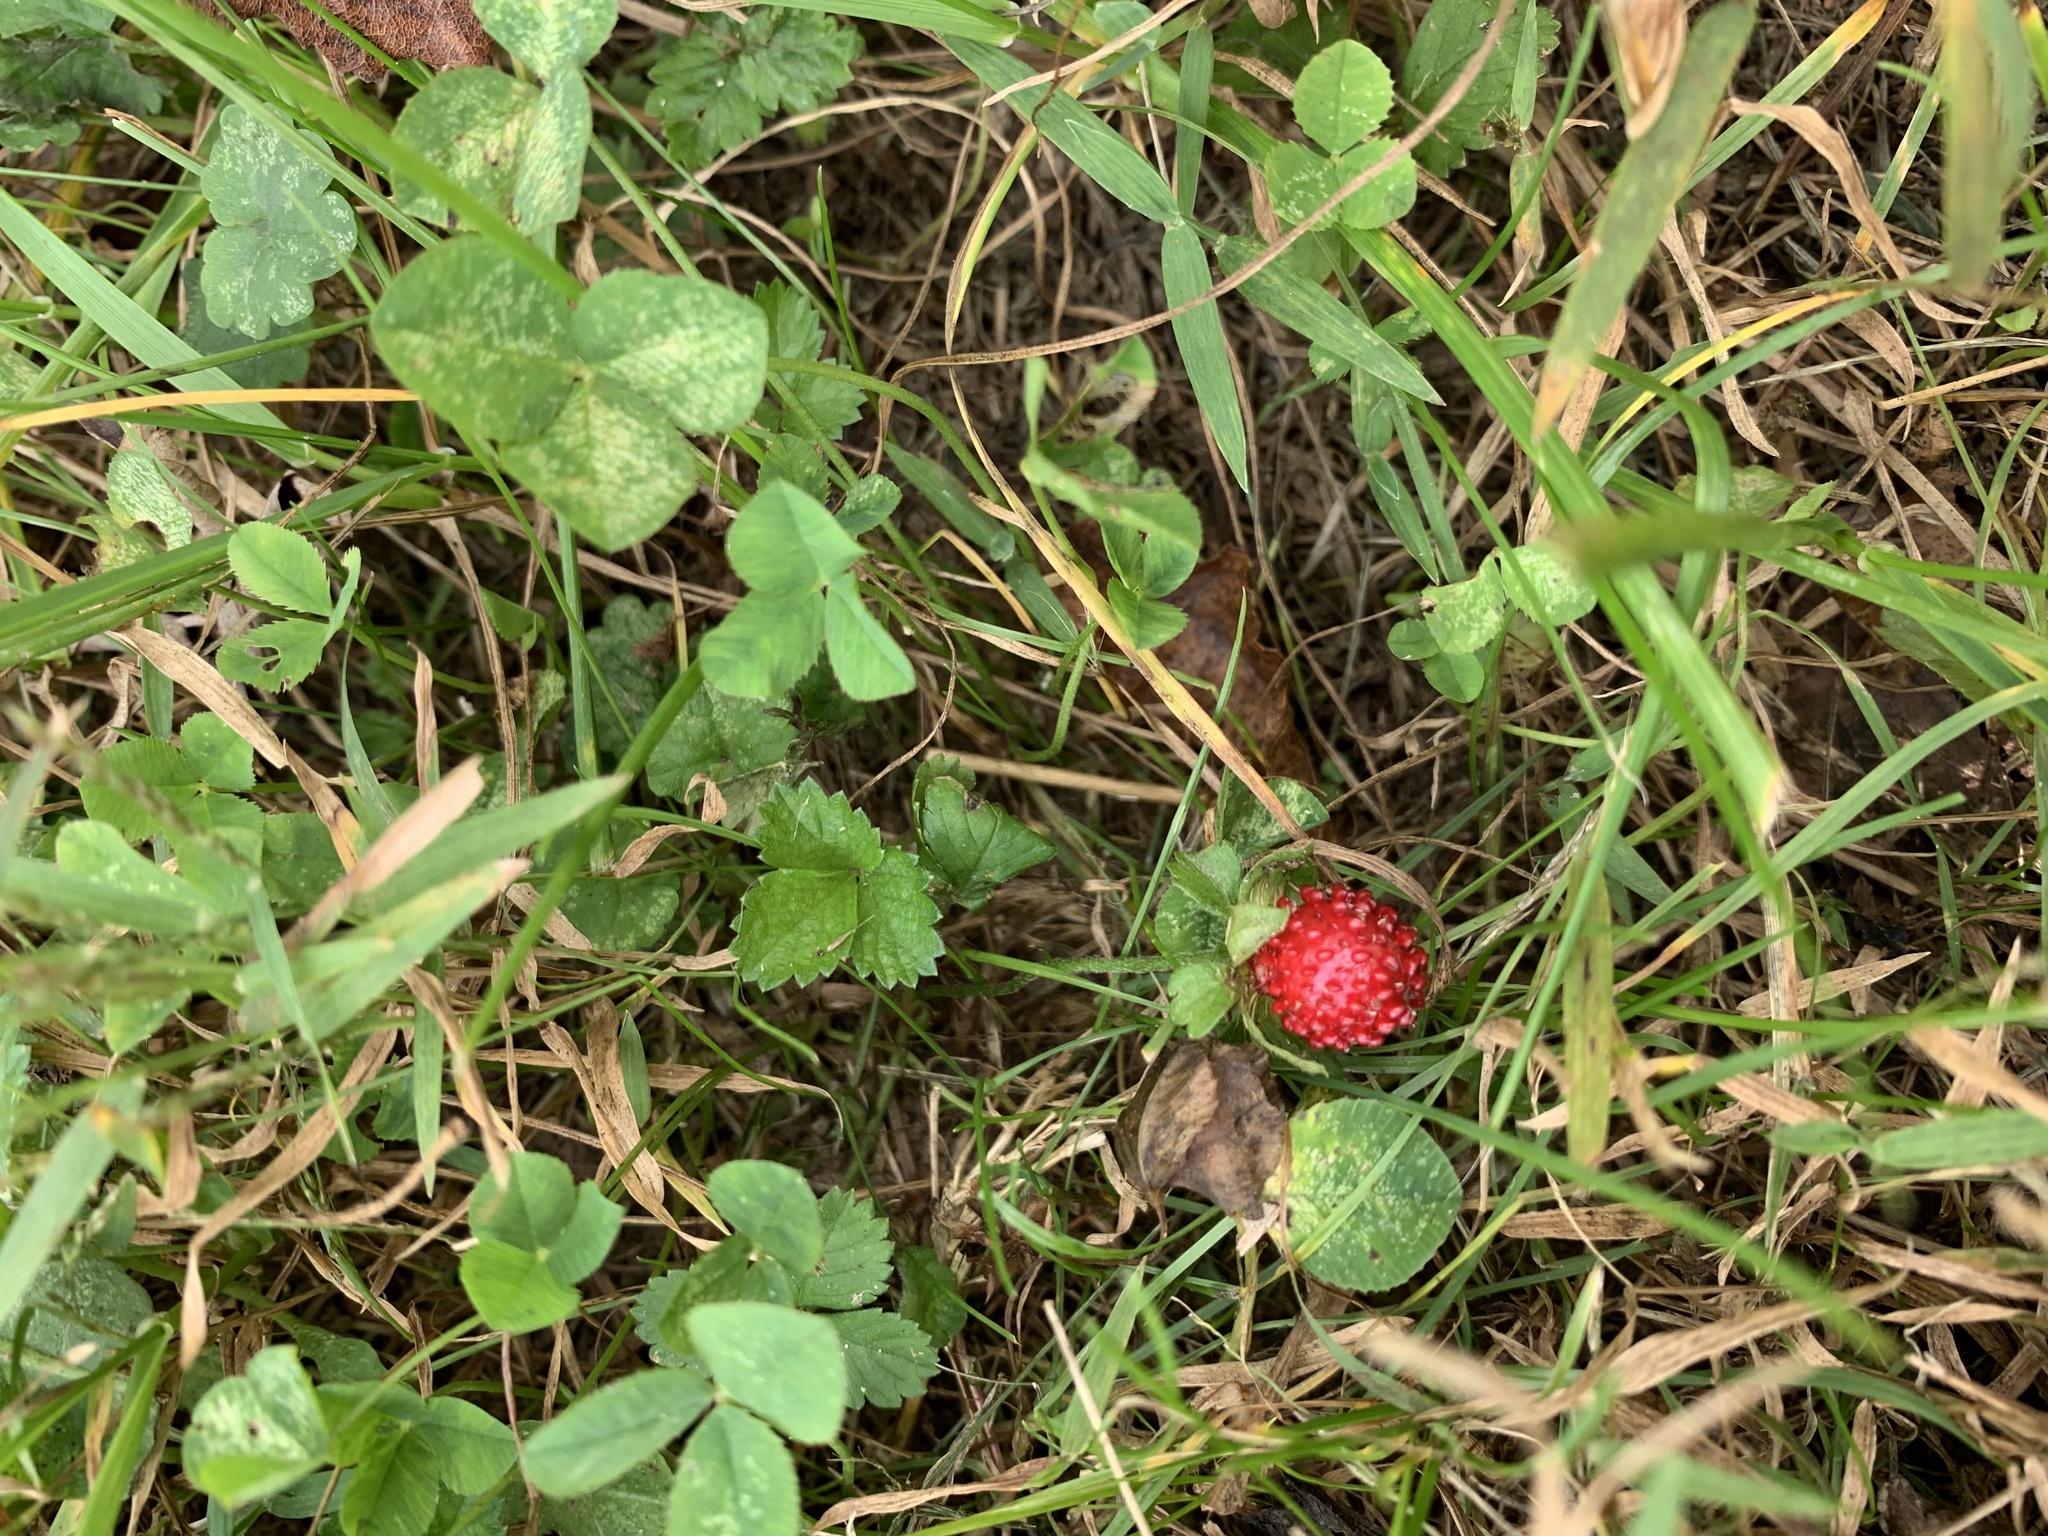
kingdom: Plantae
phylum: Tracheophyta
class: Magnoliopsida
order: Rosales
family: Rosaceae
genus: Potentilla
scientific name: Potentilla indica
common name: Yellow-flowered strawberry
